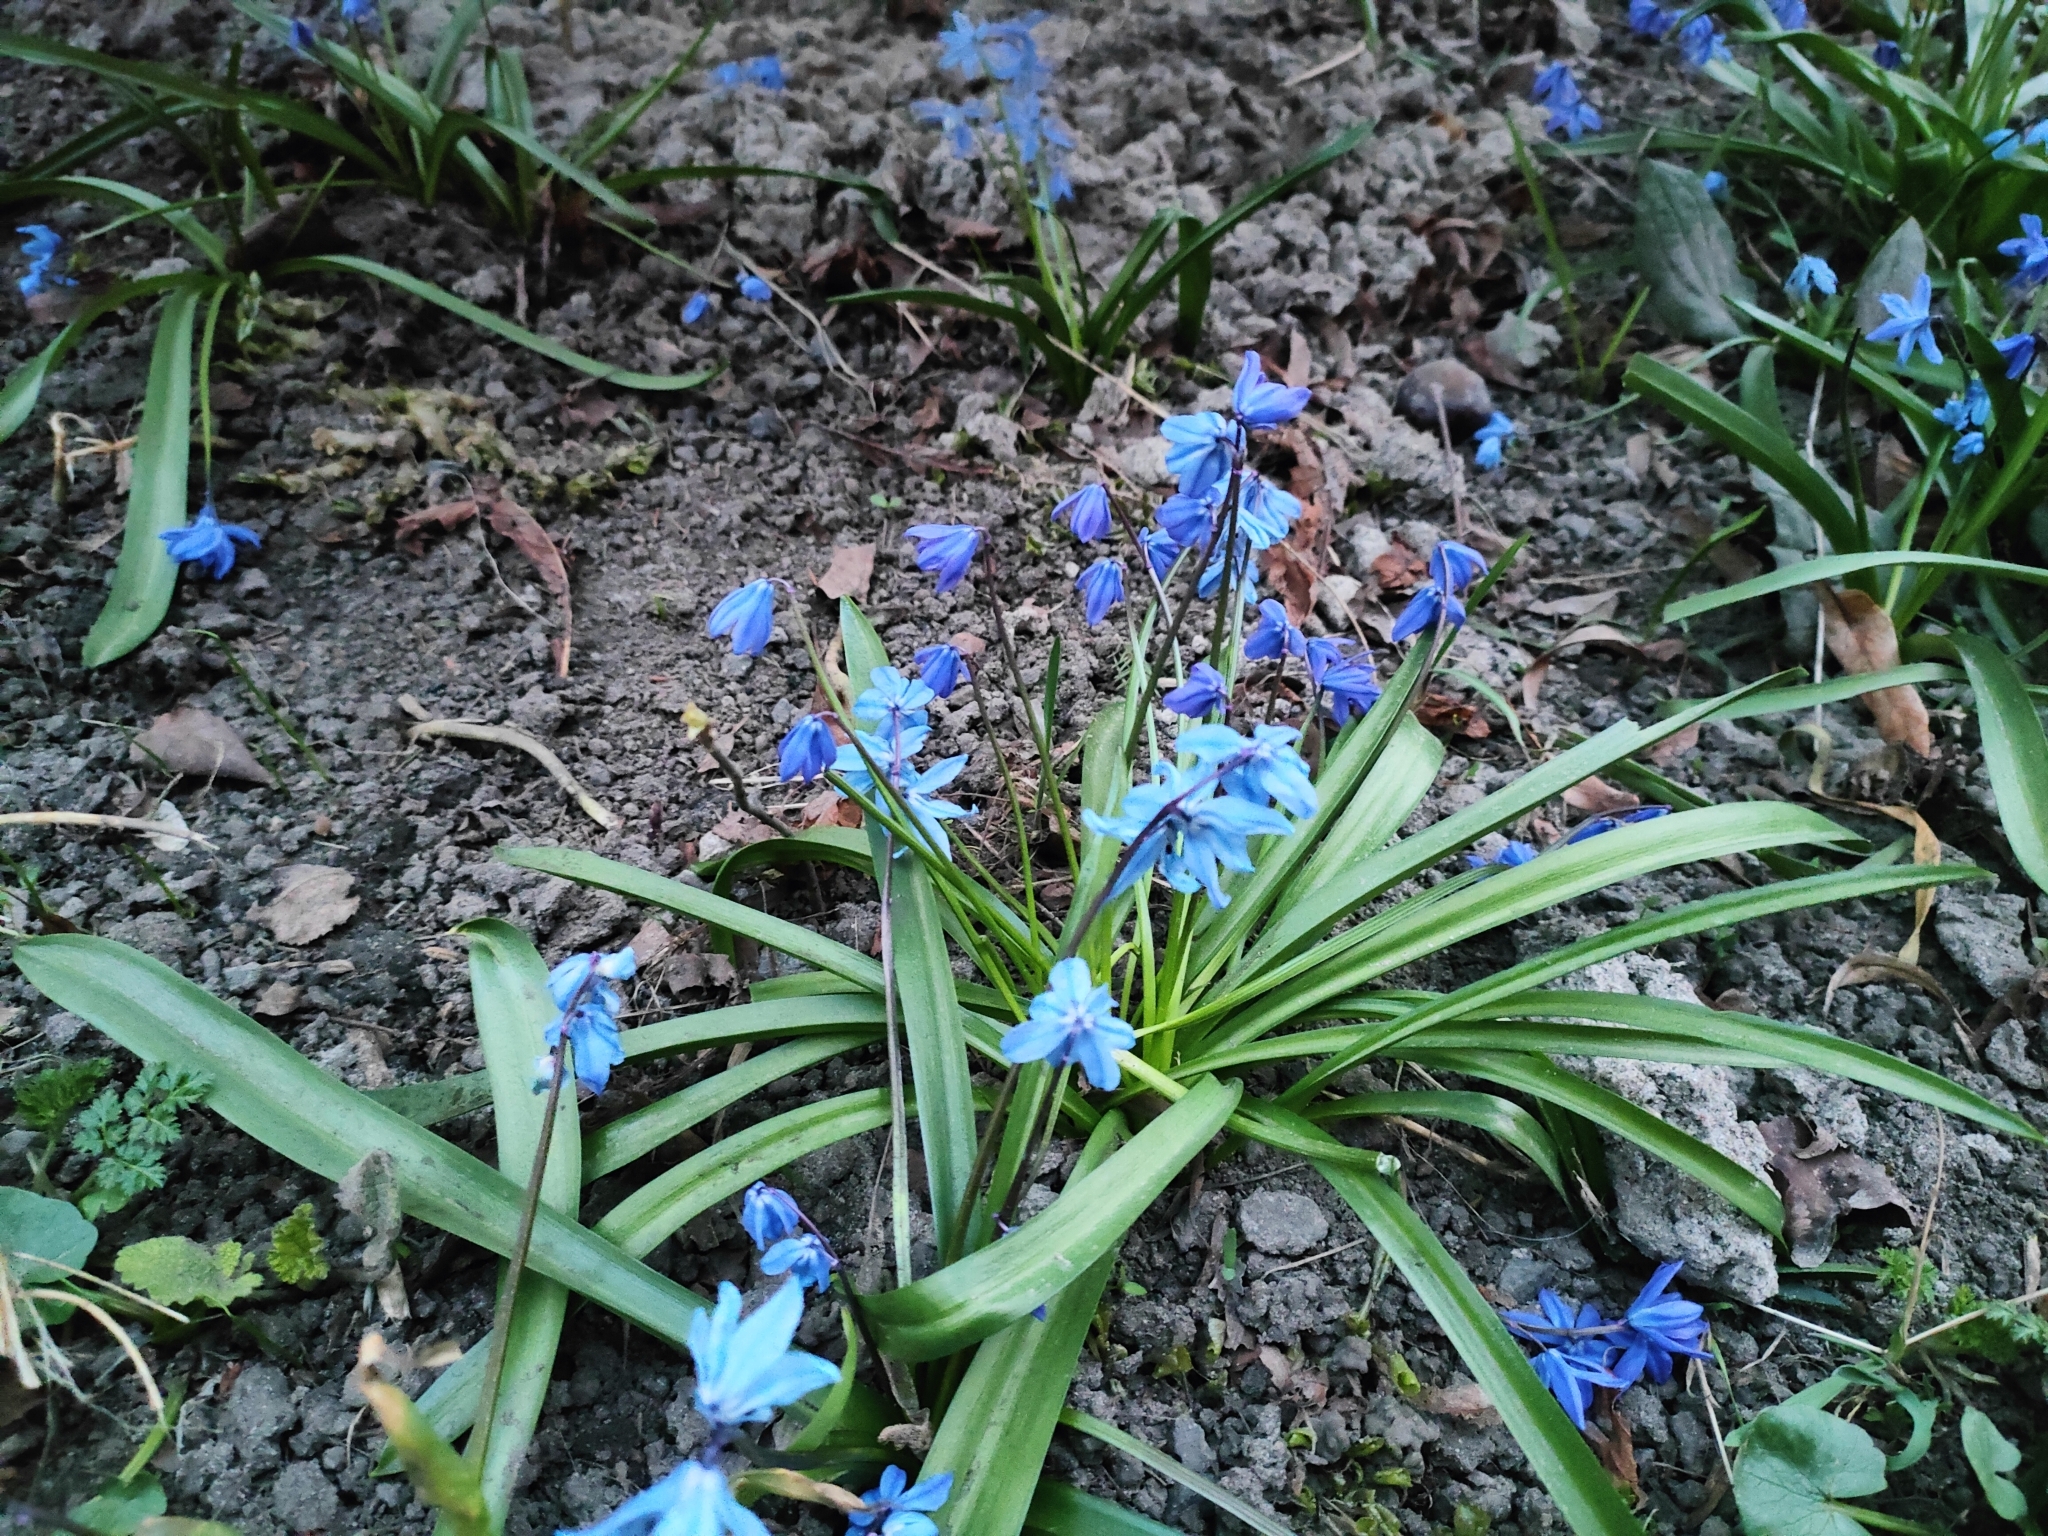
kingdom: Plantae
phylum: Tracheophyta
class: Liliopsida
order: Asparagales
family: Asparagaceae
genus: Scilla
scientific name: Scilla siberica
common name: Siberian squill
